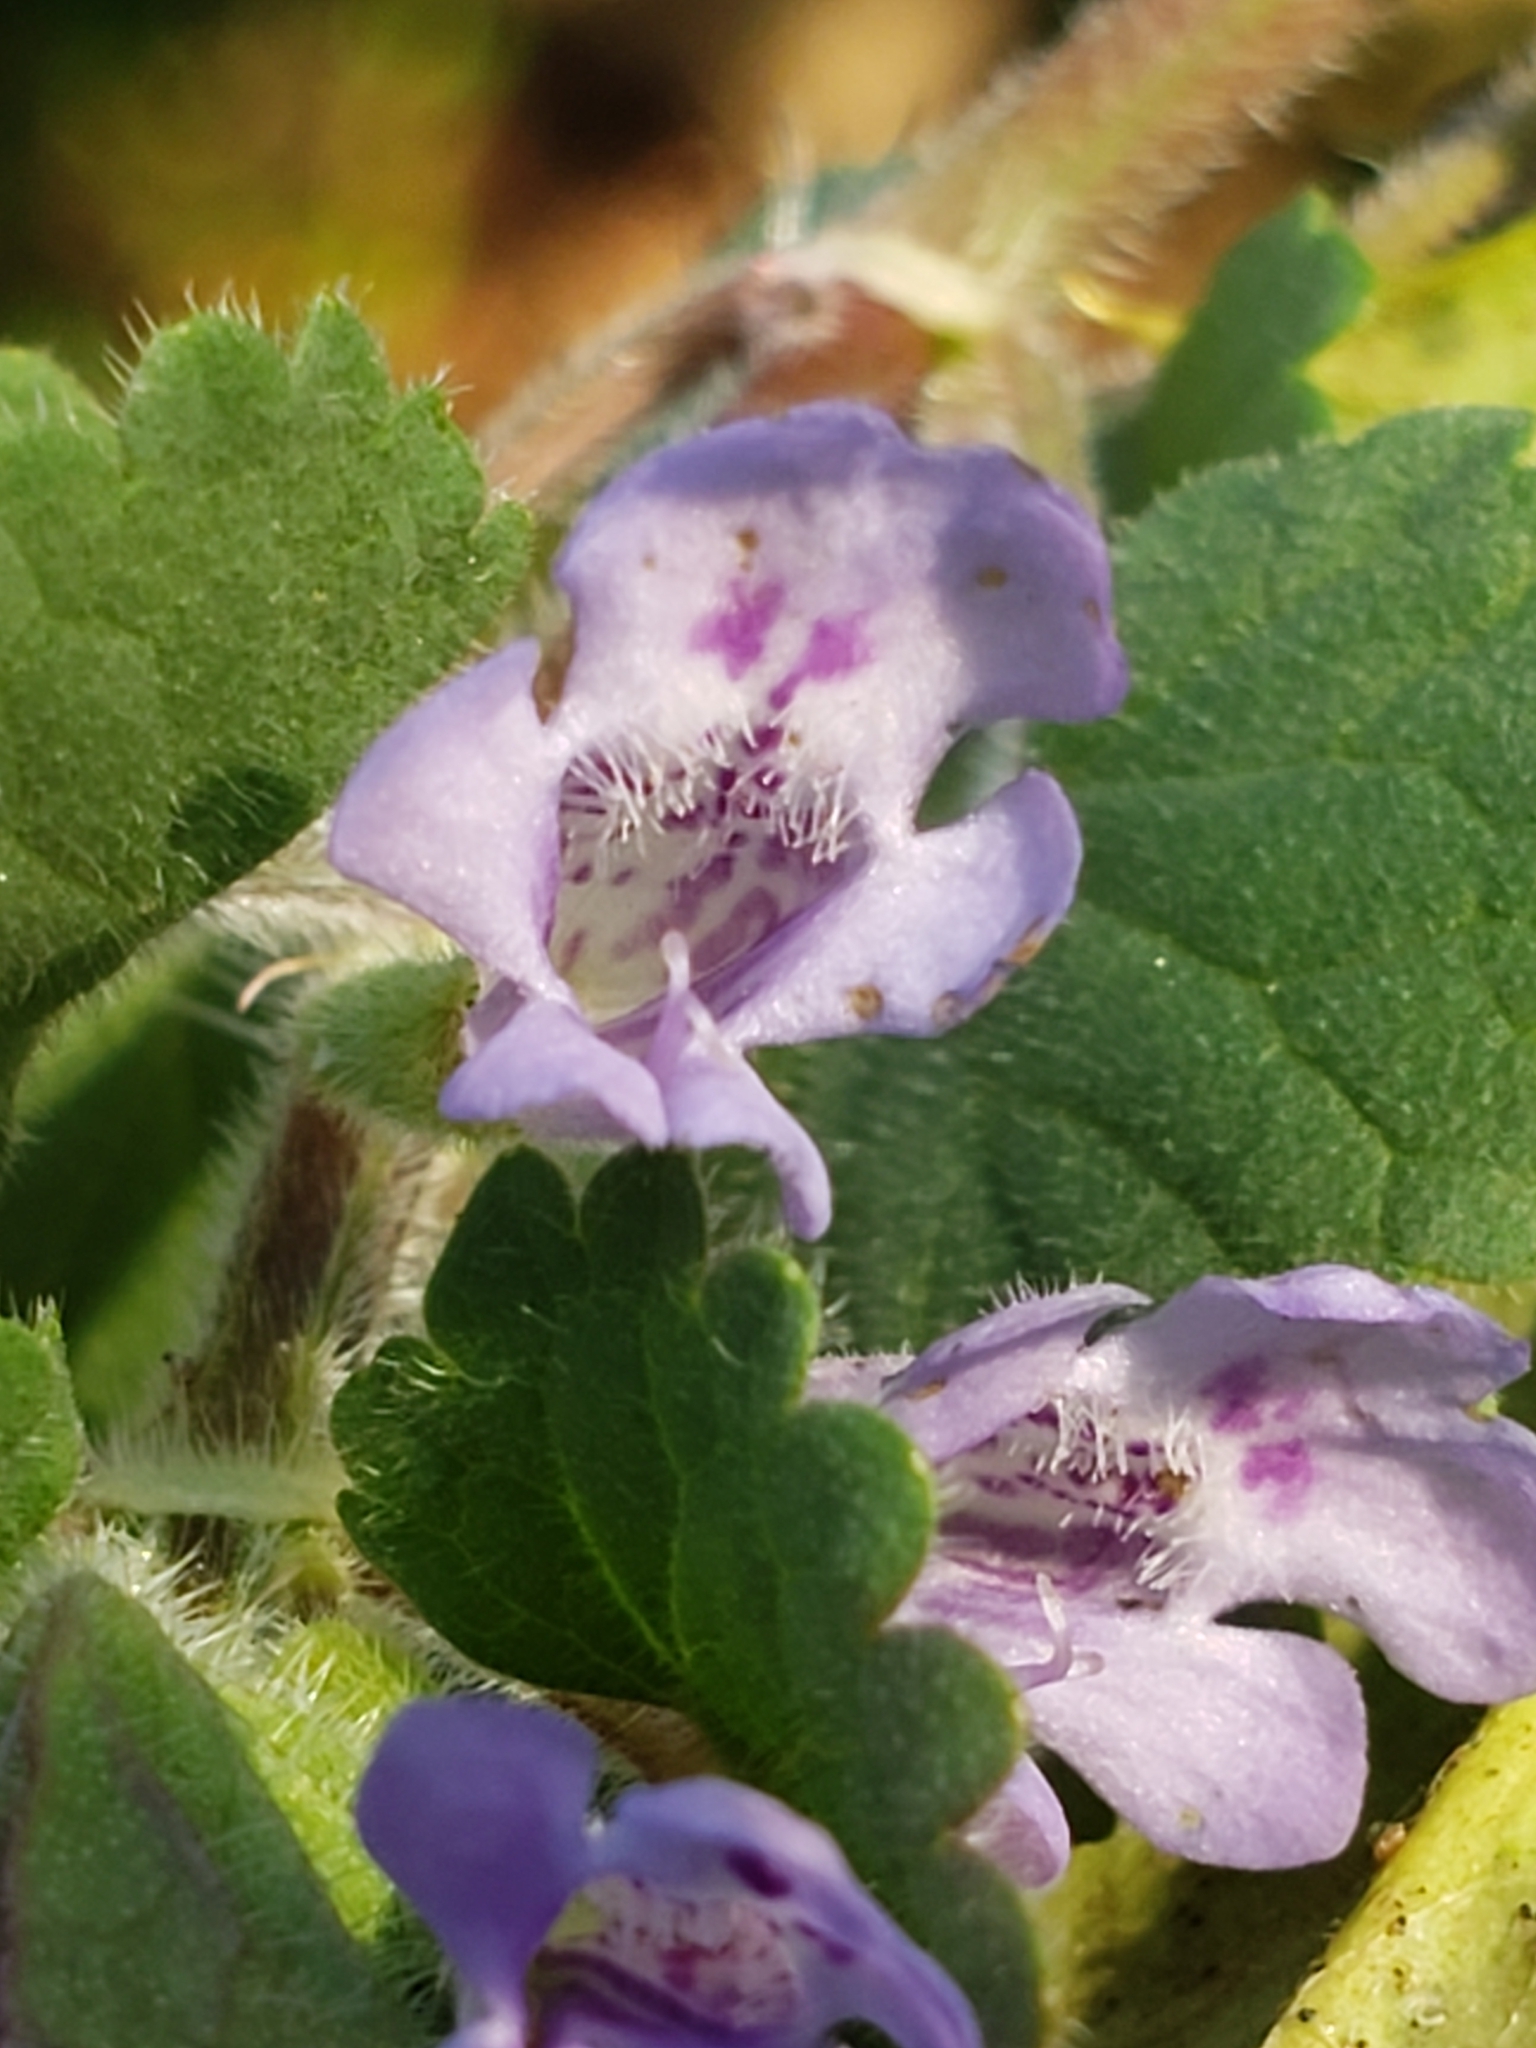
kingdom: Plantae
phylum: Tracheophyta
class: Magnoliopsida
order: Lamiales
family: Lamiaceae
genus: Glechoma
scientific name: Glechoma hederacea
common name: Ground ivy
